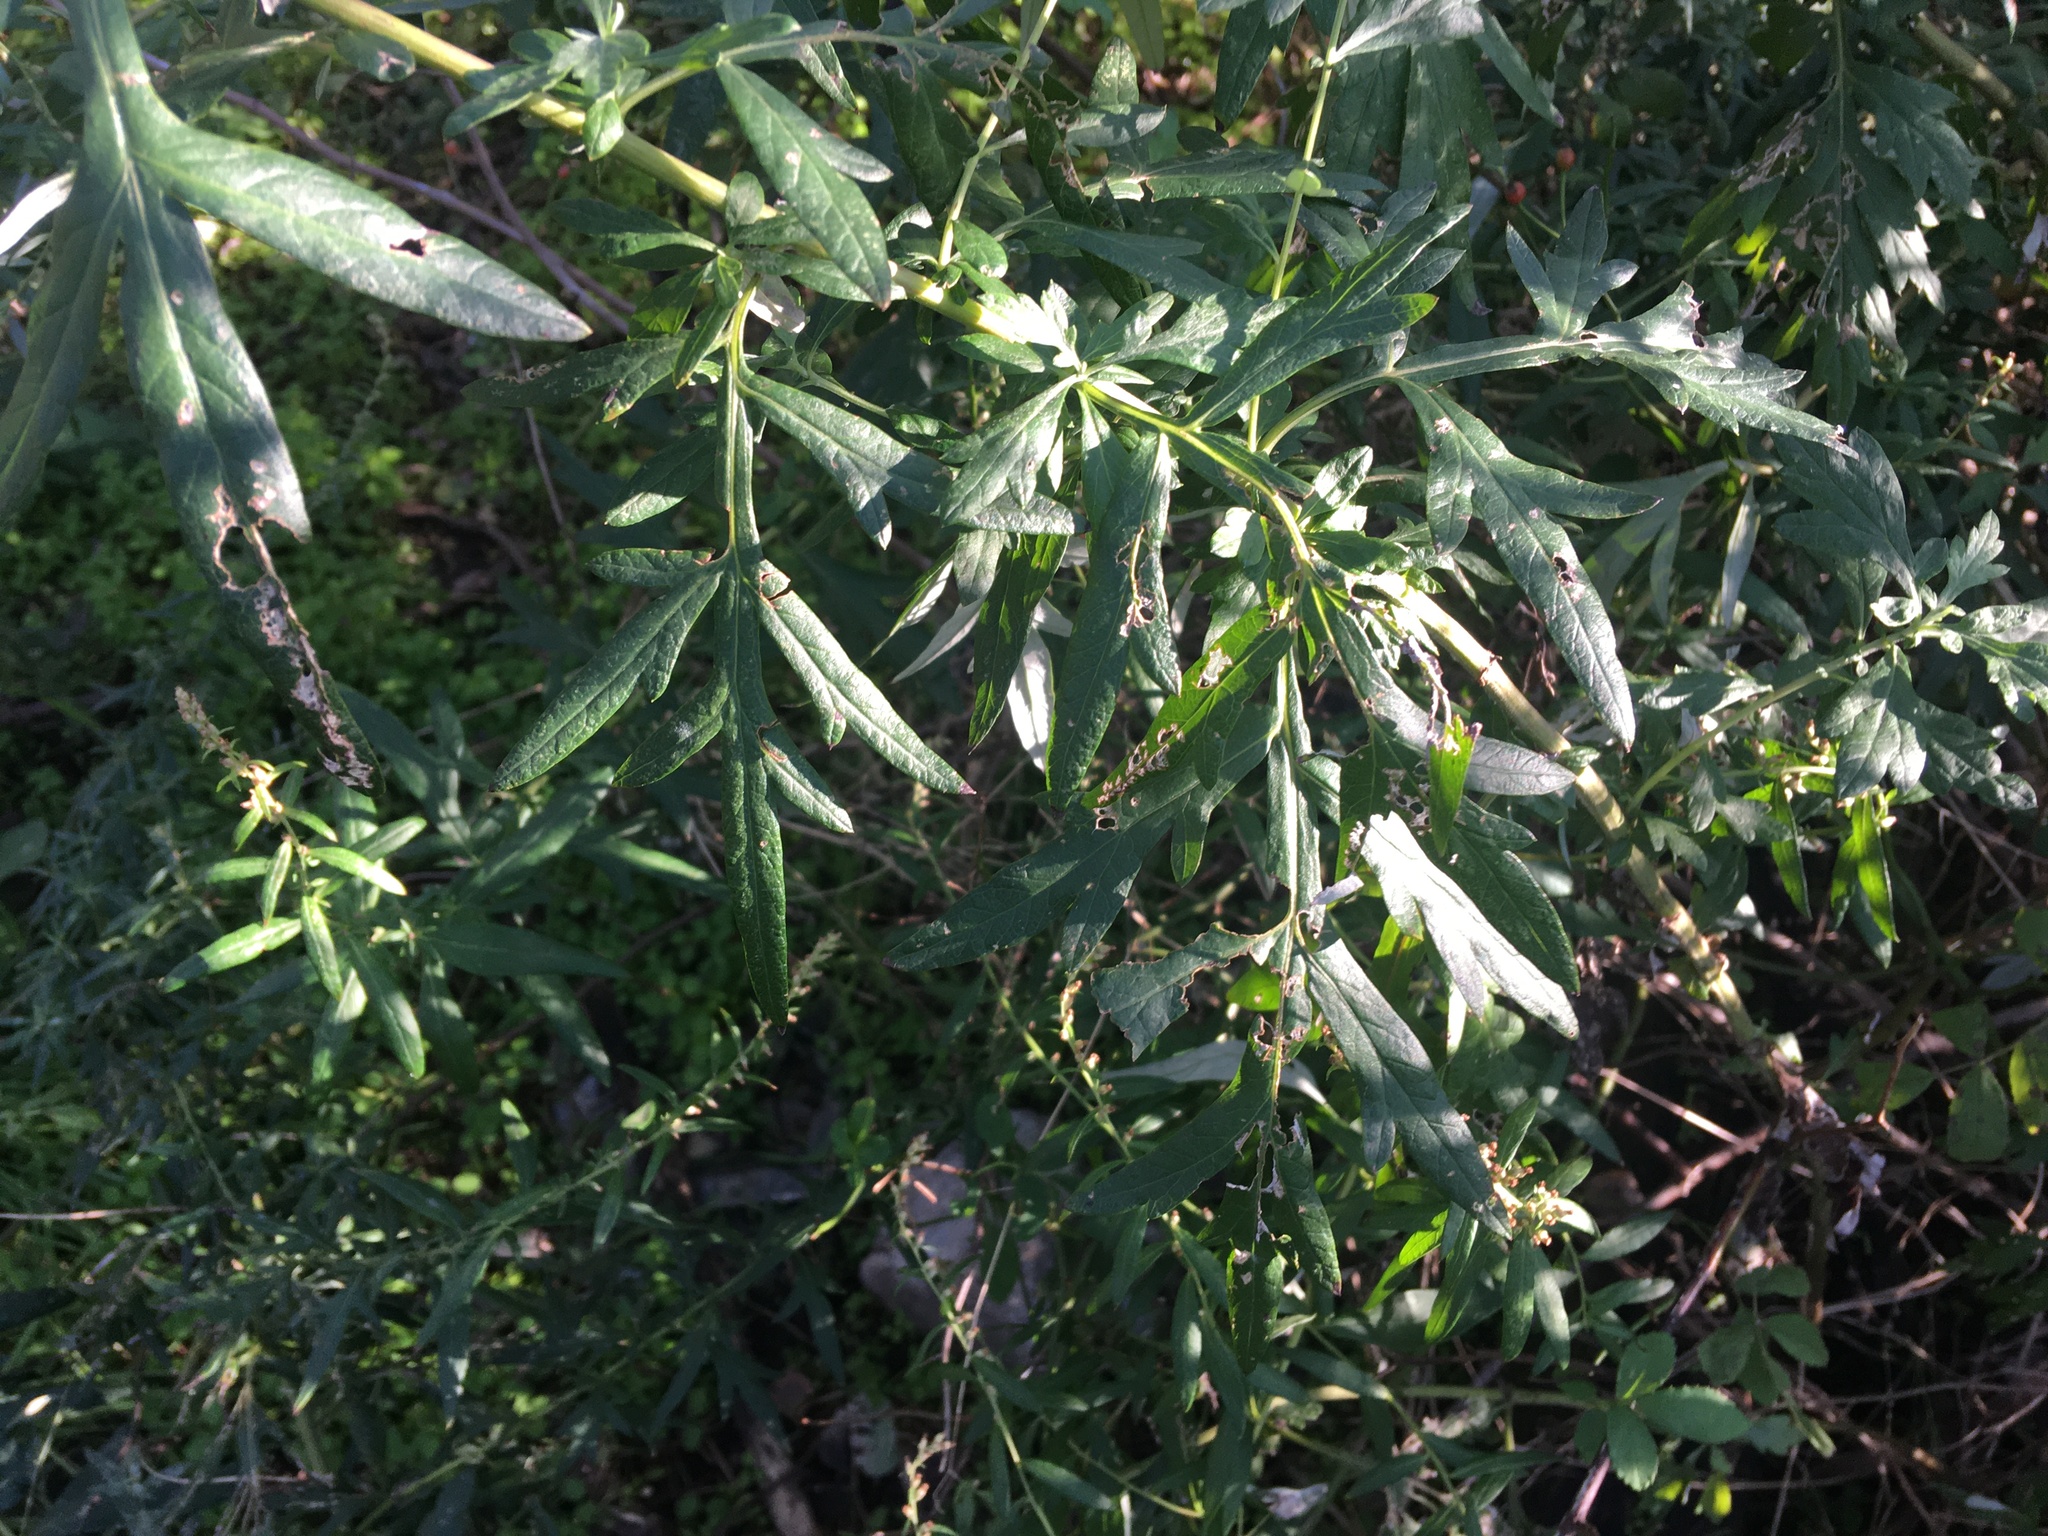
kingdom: Plantae
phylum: Tracheophyta
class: Magnoliopsida
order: Asterales
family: Asteraceae
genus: Artemisia
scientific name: Artemisia vulgaris
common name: Mugwort
